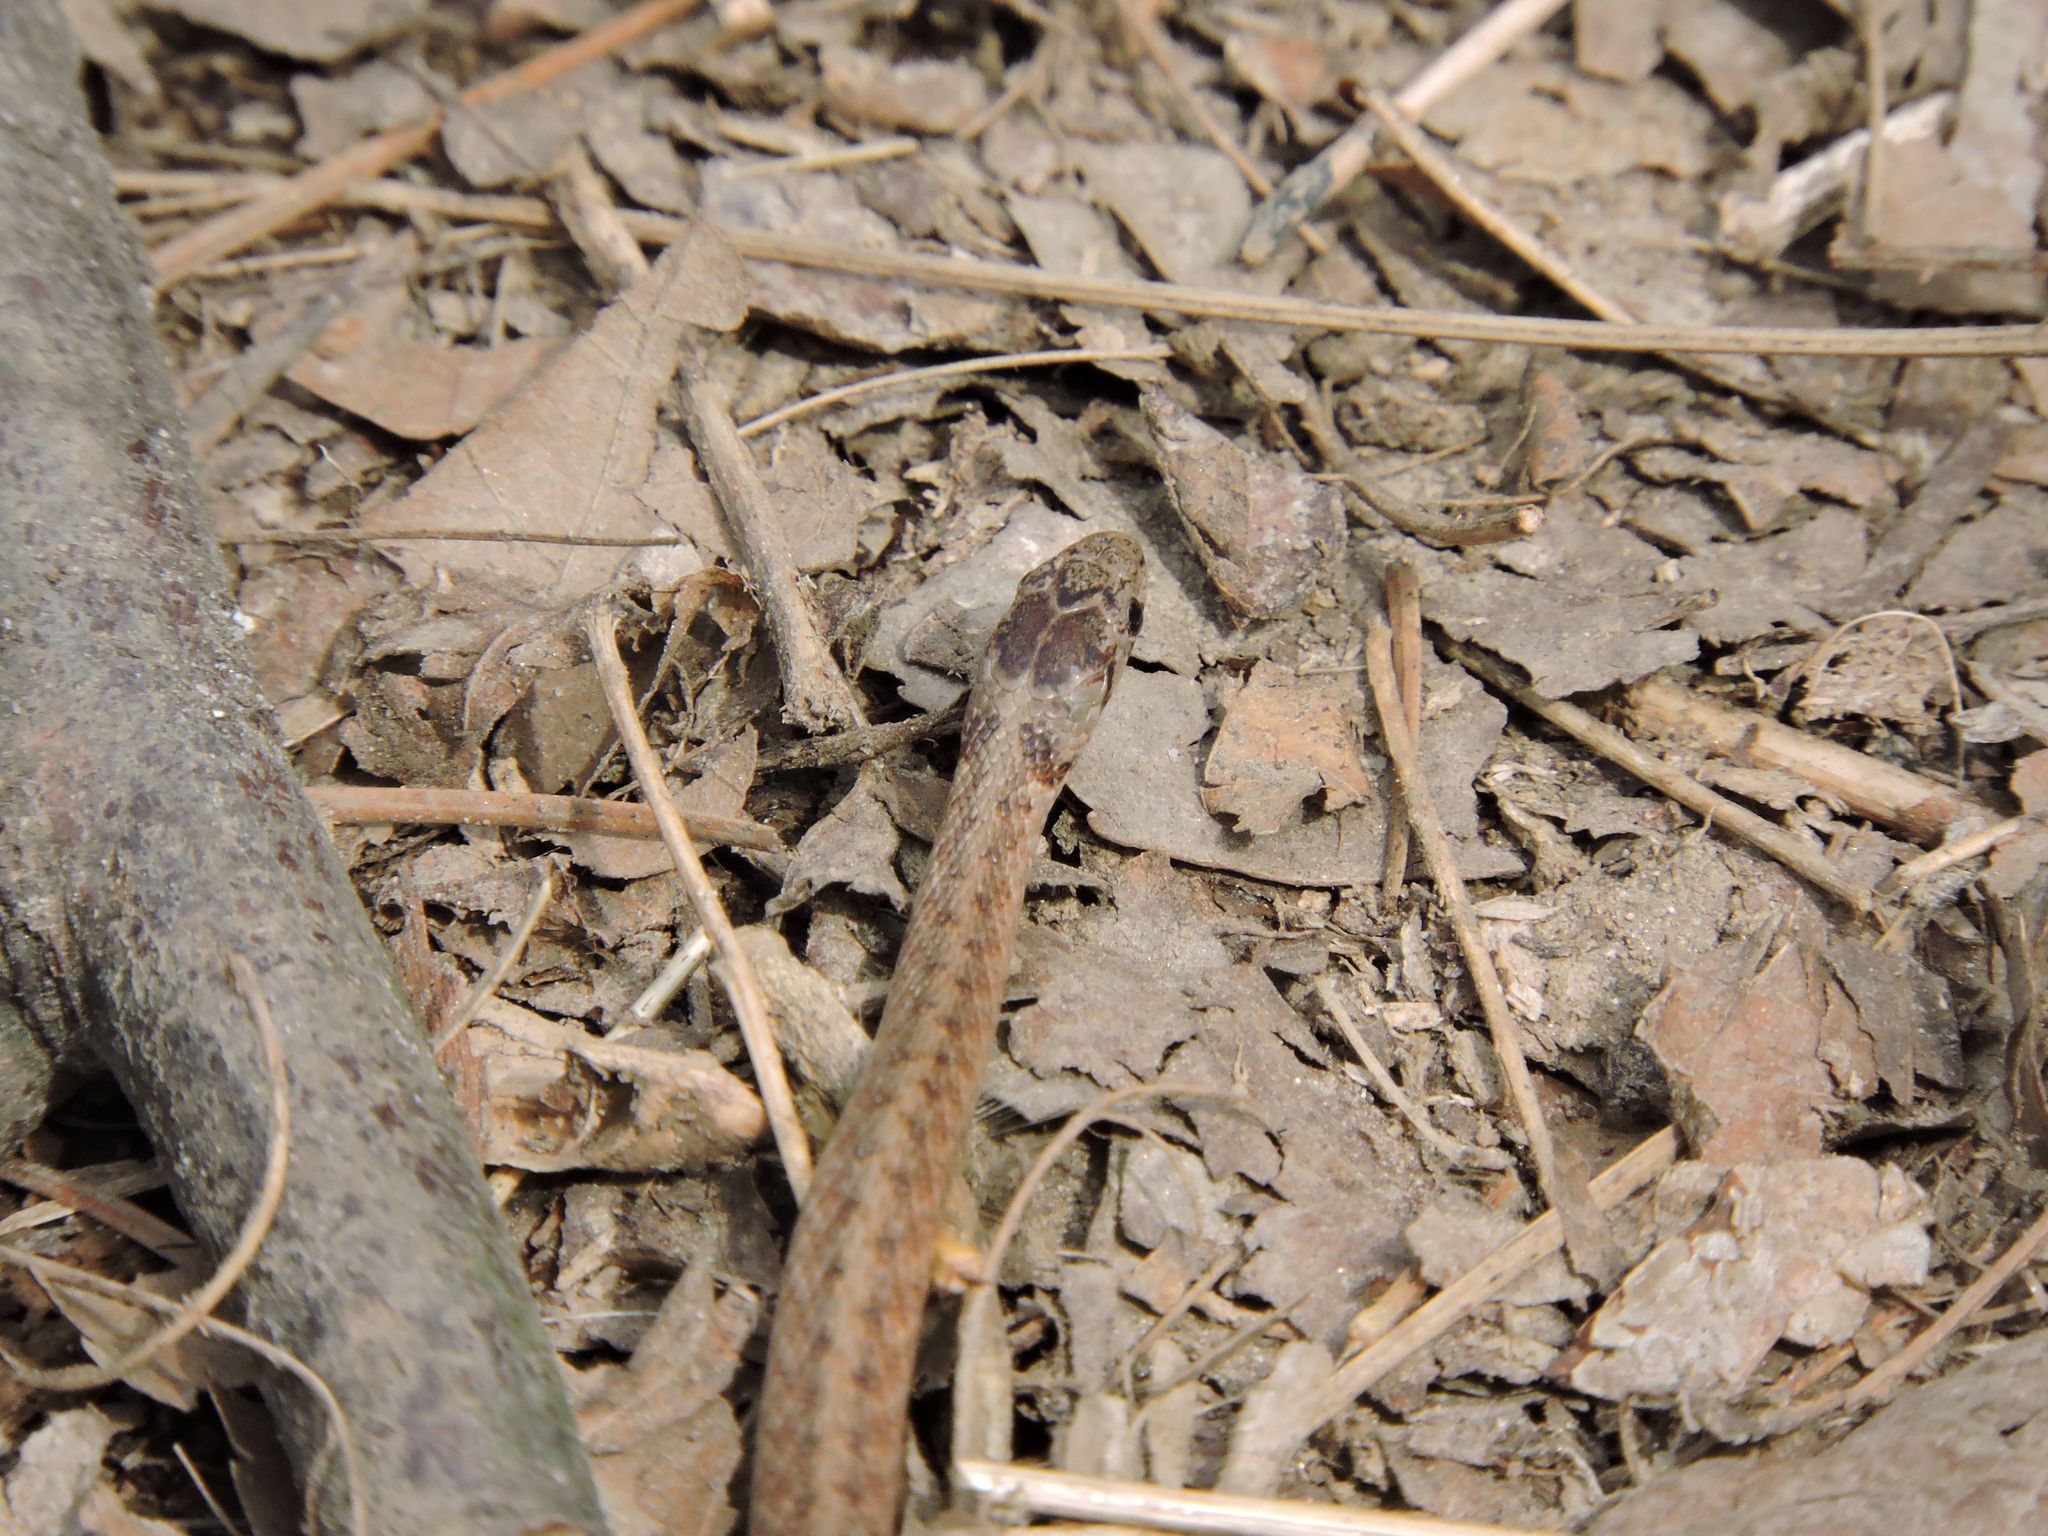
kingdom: Animalia
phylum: Chordata
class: Squamata
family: Colubridae
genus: Storeria
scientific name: Storeria dekayi
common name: (dekay’s) brown snake
